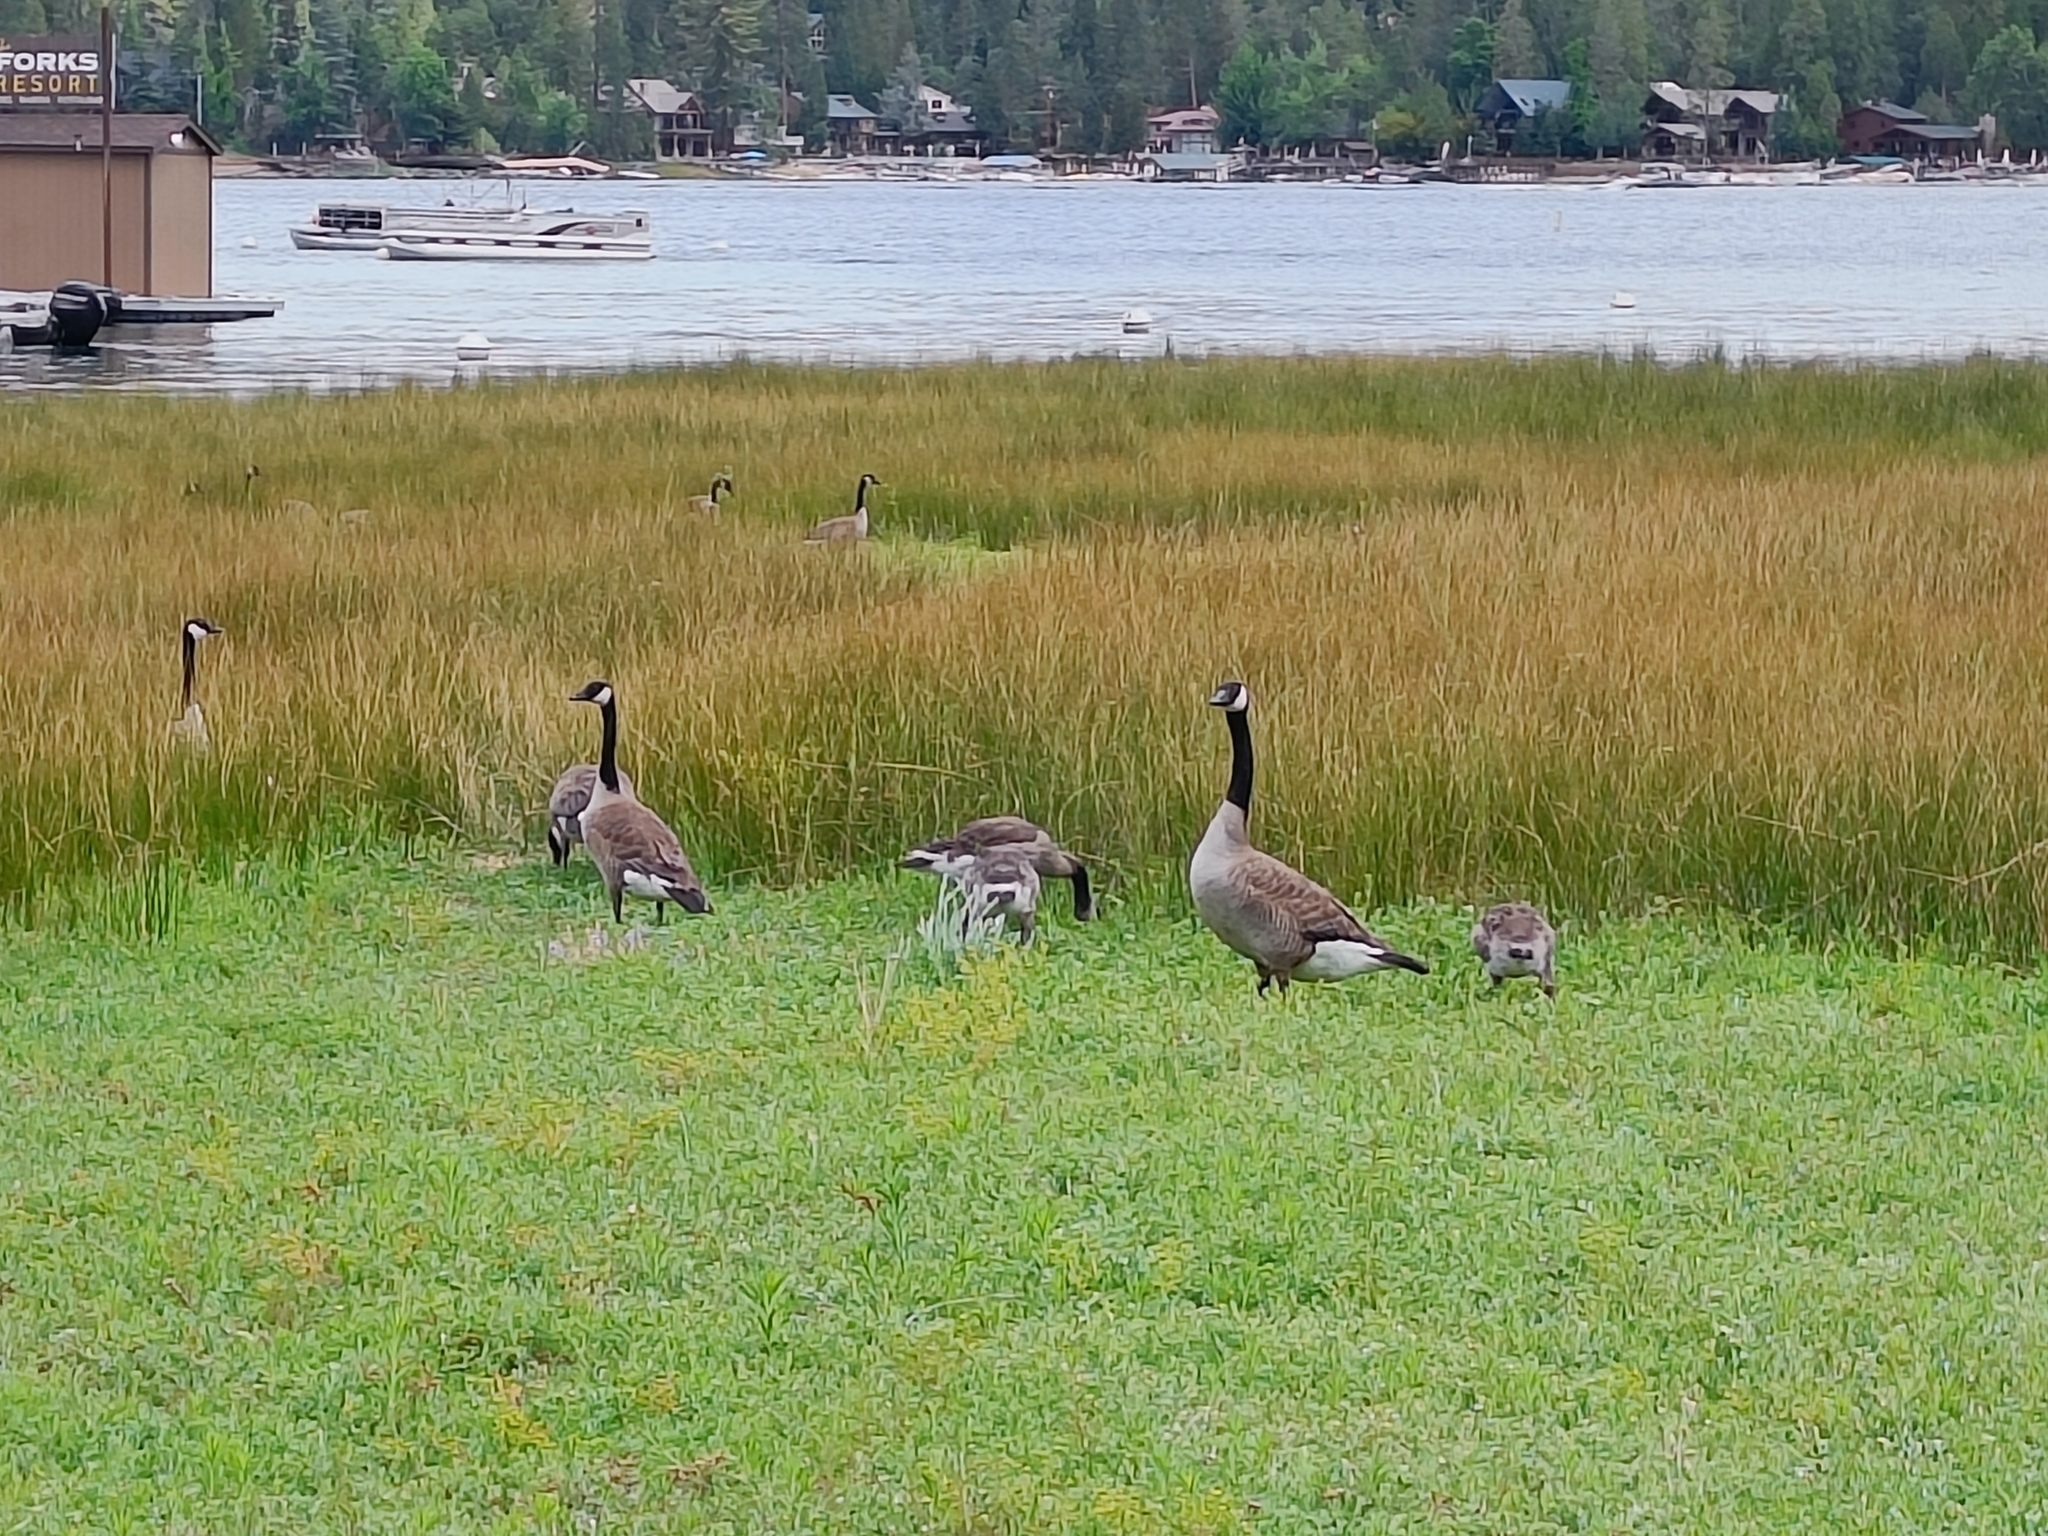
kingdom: Animalia
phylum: Chordata
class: Aves
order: Anseriformes
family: Anatidae
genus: Branta
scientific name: Branta canadensis
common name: Canada goose
